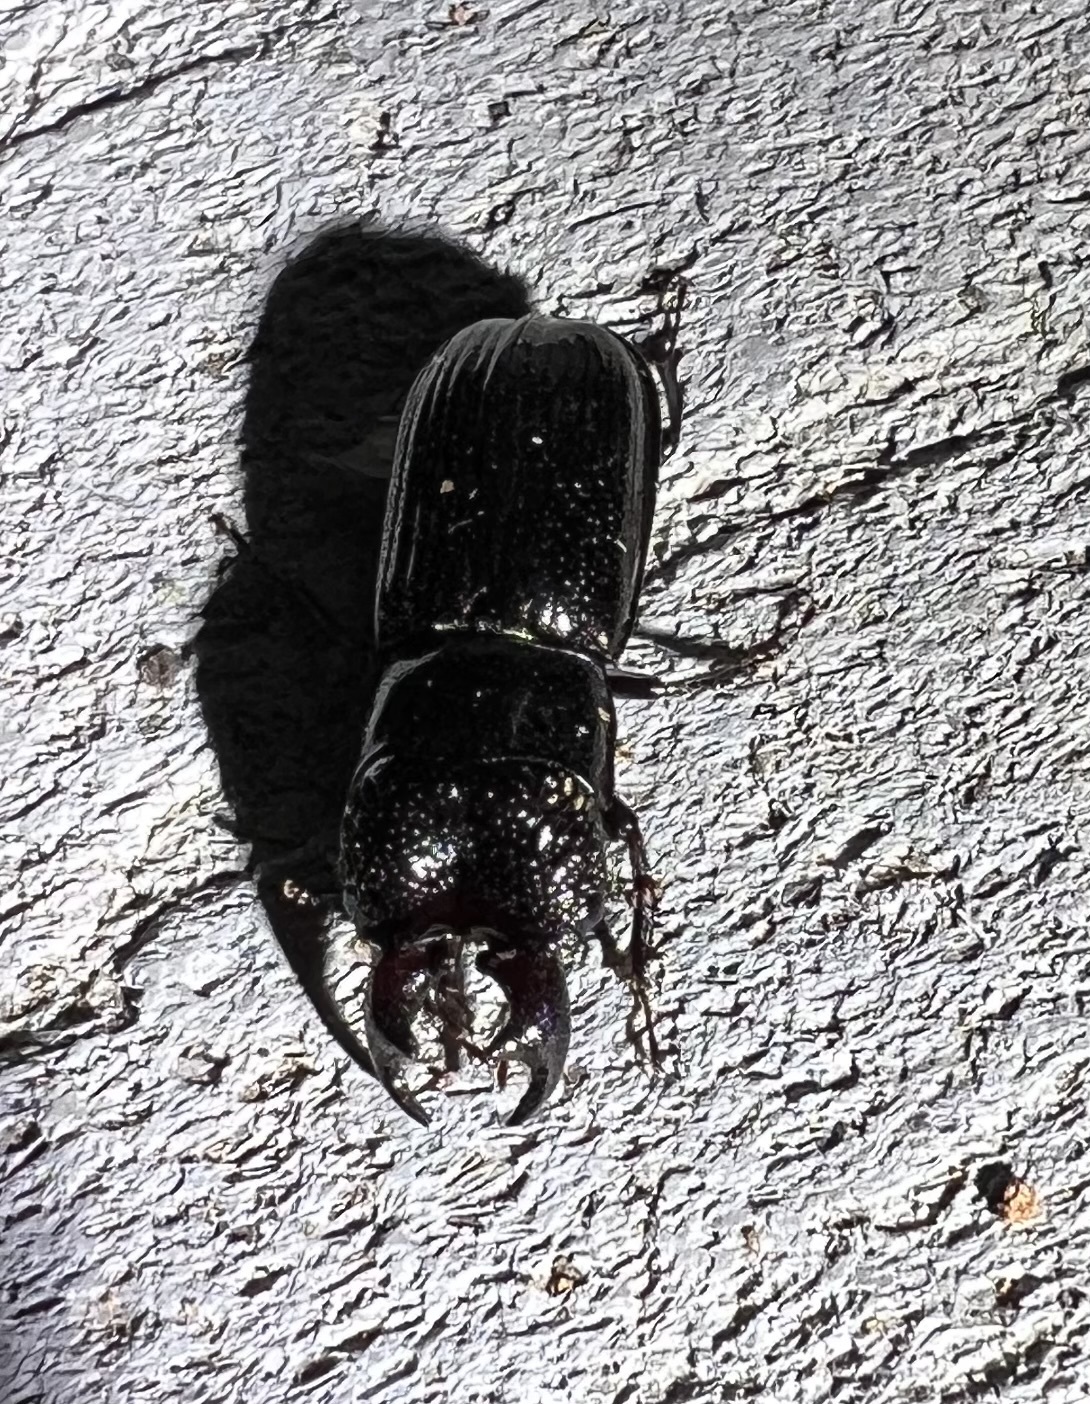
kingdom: Animalia
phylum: Arthropoda
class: Insecta
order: Coleoptera
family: Lucanidae
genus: Ceruchus
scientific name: Ceruchus piceus
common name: Red-rot decay stag beetle
